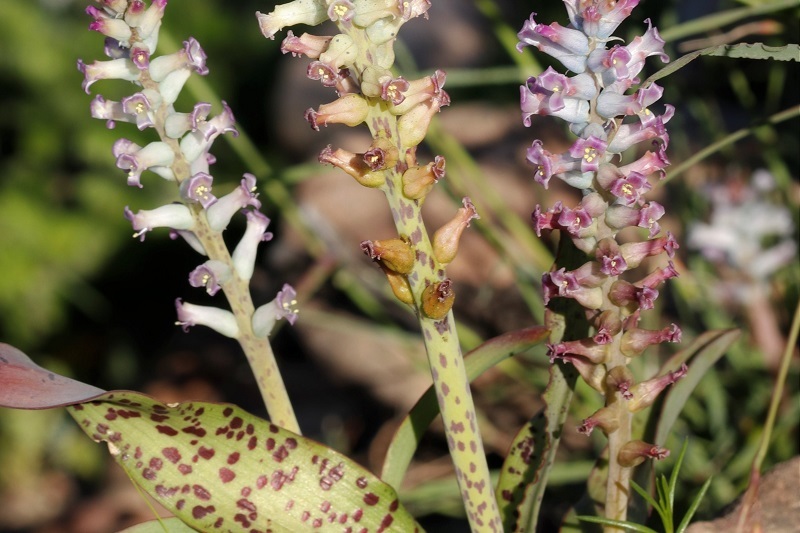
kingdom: Plantae
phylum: Tracheophyta
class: Liliopsida
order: Asparagales
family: Asparagaceae
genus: Lachenalia
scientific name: Lachenalia fistulosa
